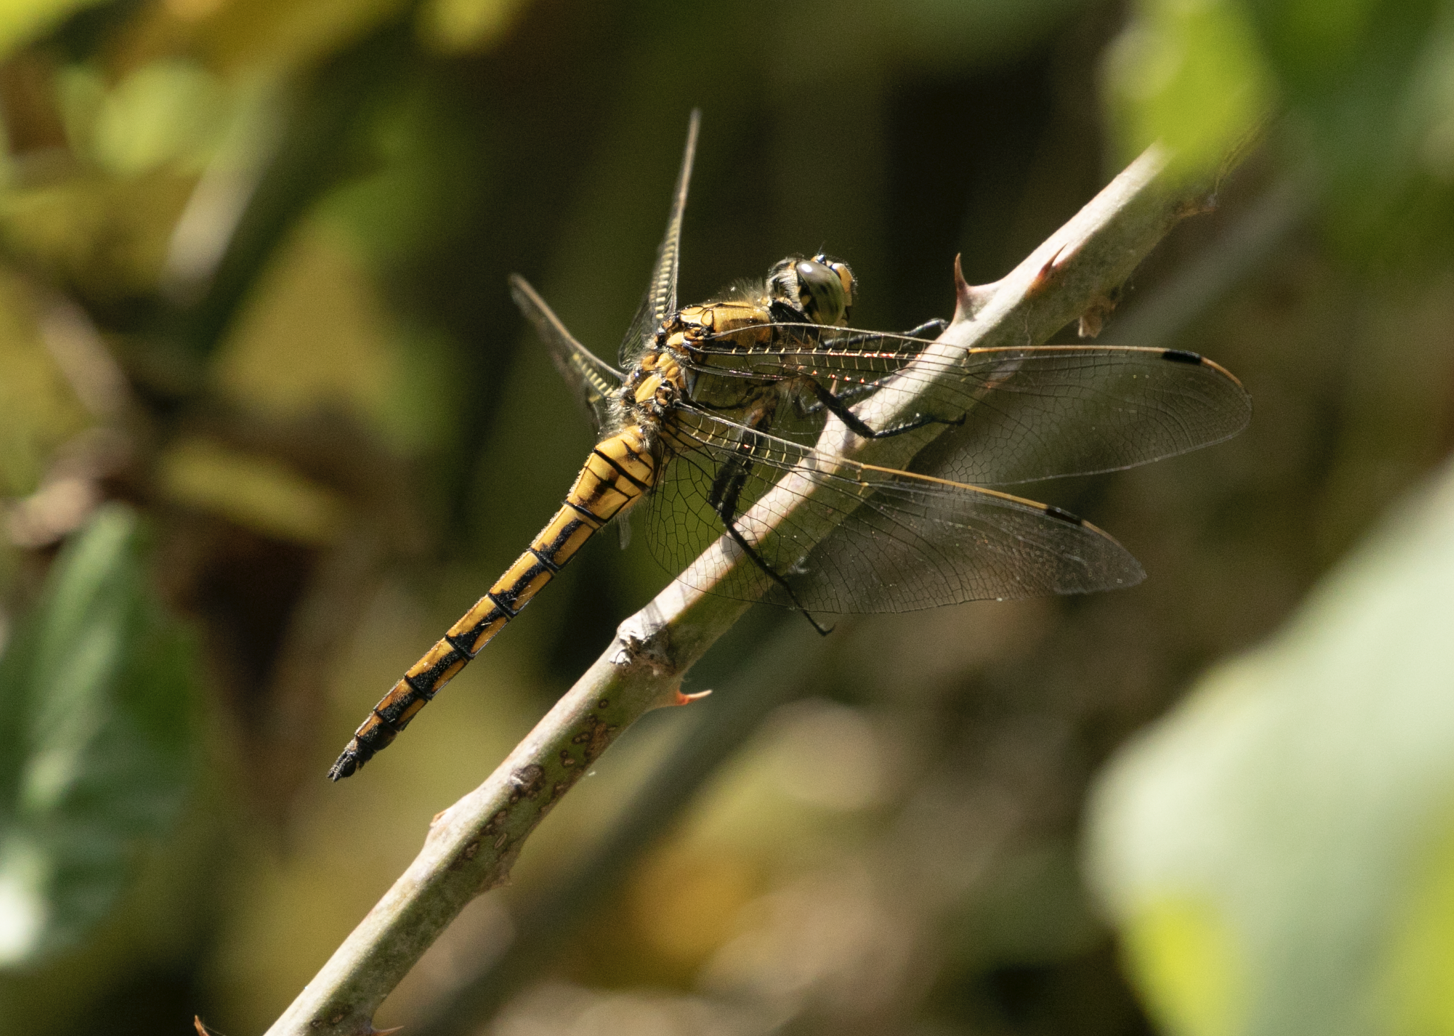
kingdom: Animalia
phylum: Arthropoda
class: Insecta
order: Odonata
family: Libellulidae
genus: Orthetrum
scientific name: Orthetrum cancellatum
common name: Black-tailed skimmer
